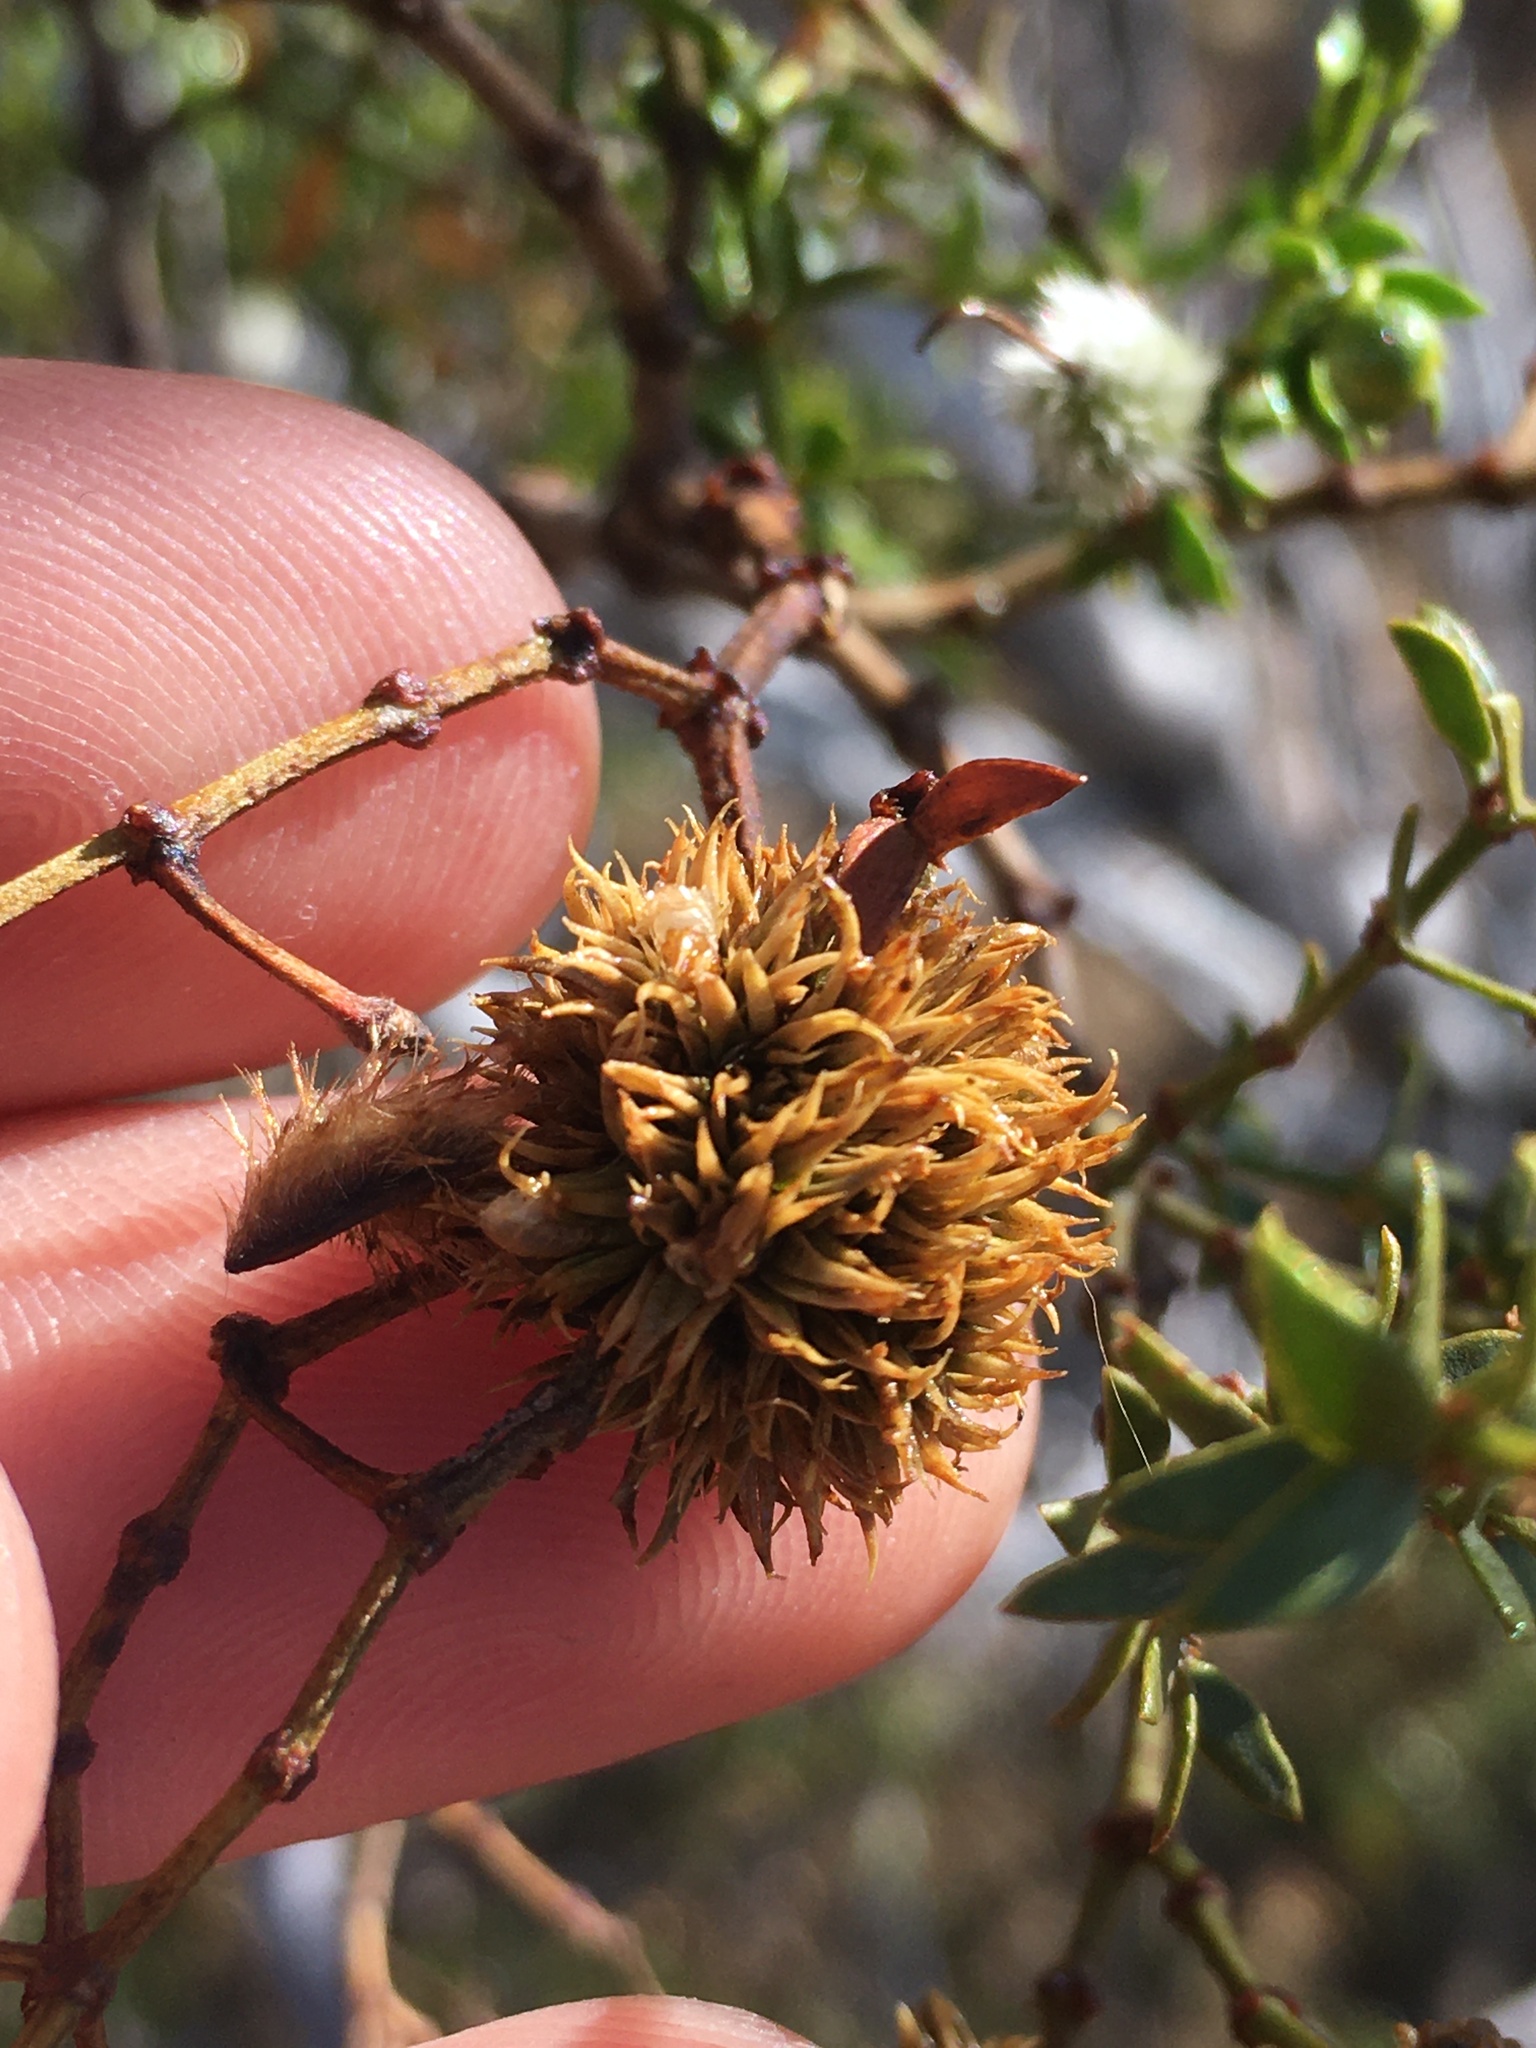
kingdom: Animalia
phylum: Arthropoda
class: Insecta
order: Diptera
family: Cecidomyiidae
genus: Asphondylia
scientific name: Asphondylia auripila
